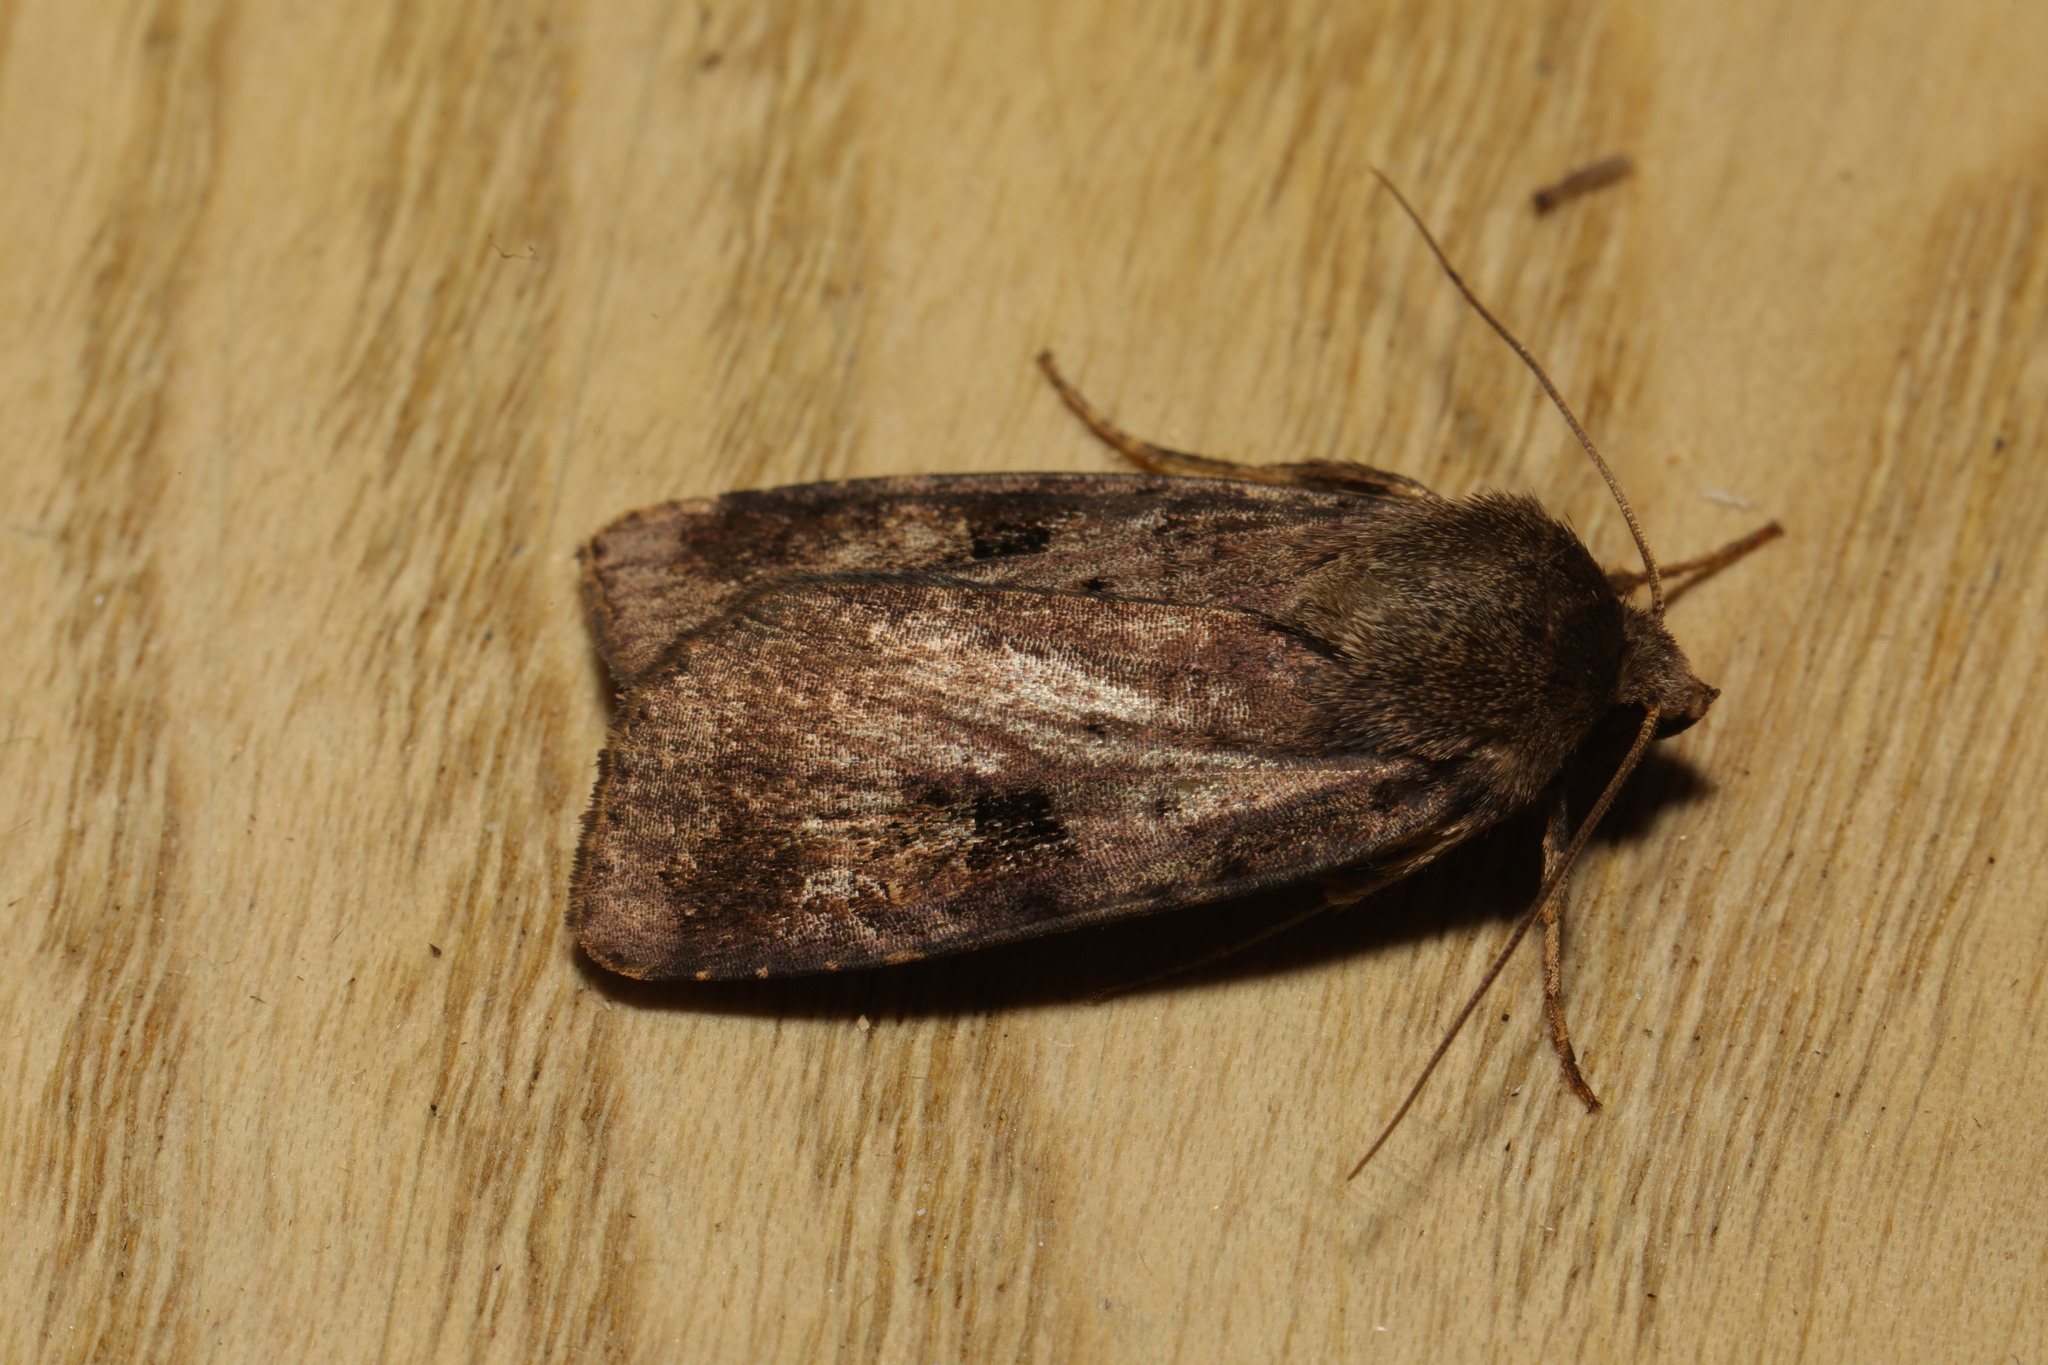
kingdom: Animalia
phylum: Arthropoda
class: Insecta
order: Lepidoptera
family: Noctuidae
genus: Diarsia
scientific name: Diarsia brunnea
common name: Purple clay
